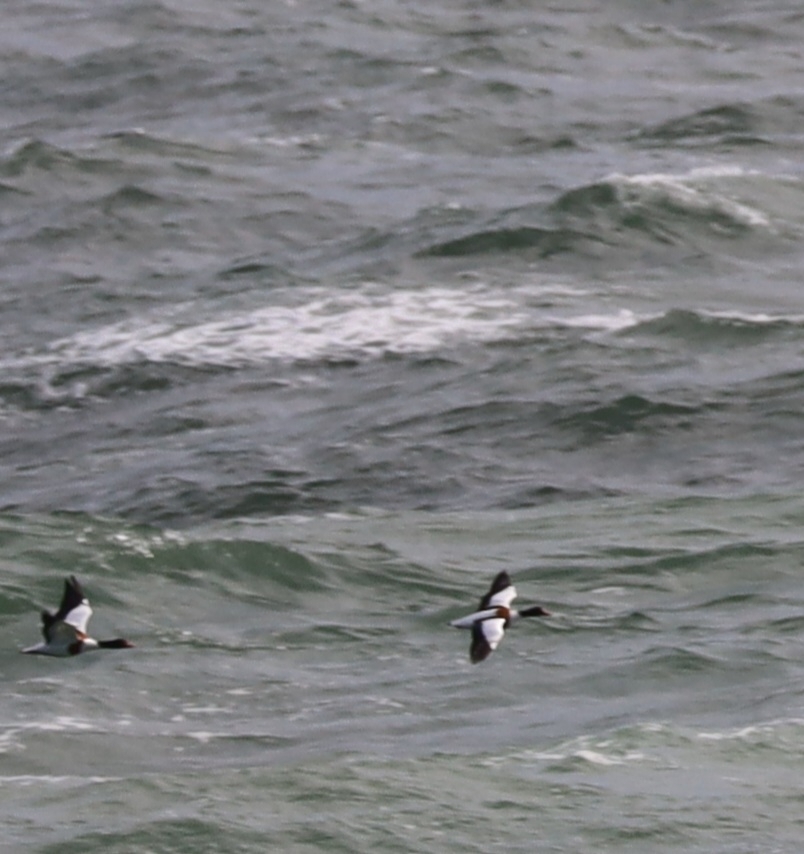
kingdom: Animalia
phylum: Chordata
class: Aves
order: Anseriformes
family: Anatidae
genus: Tadorna
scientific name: Tadorna tadorna
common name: Common shelduck
